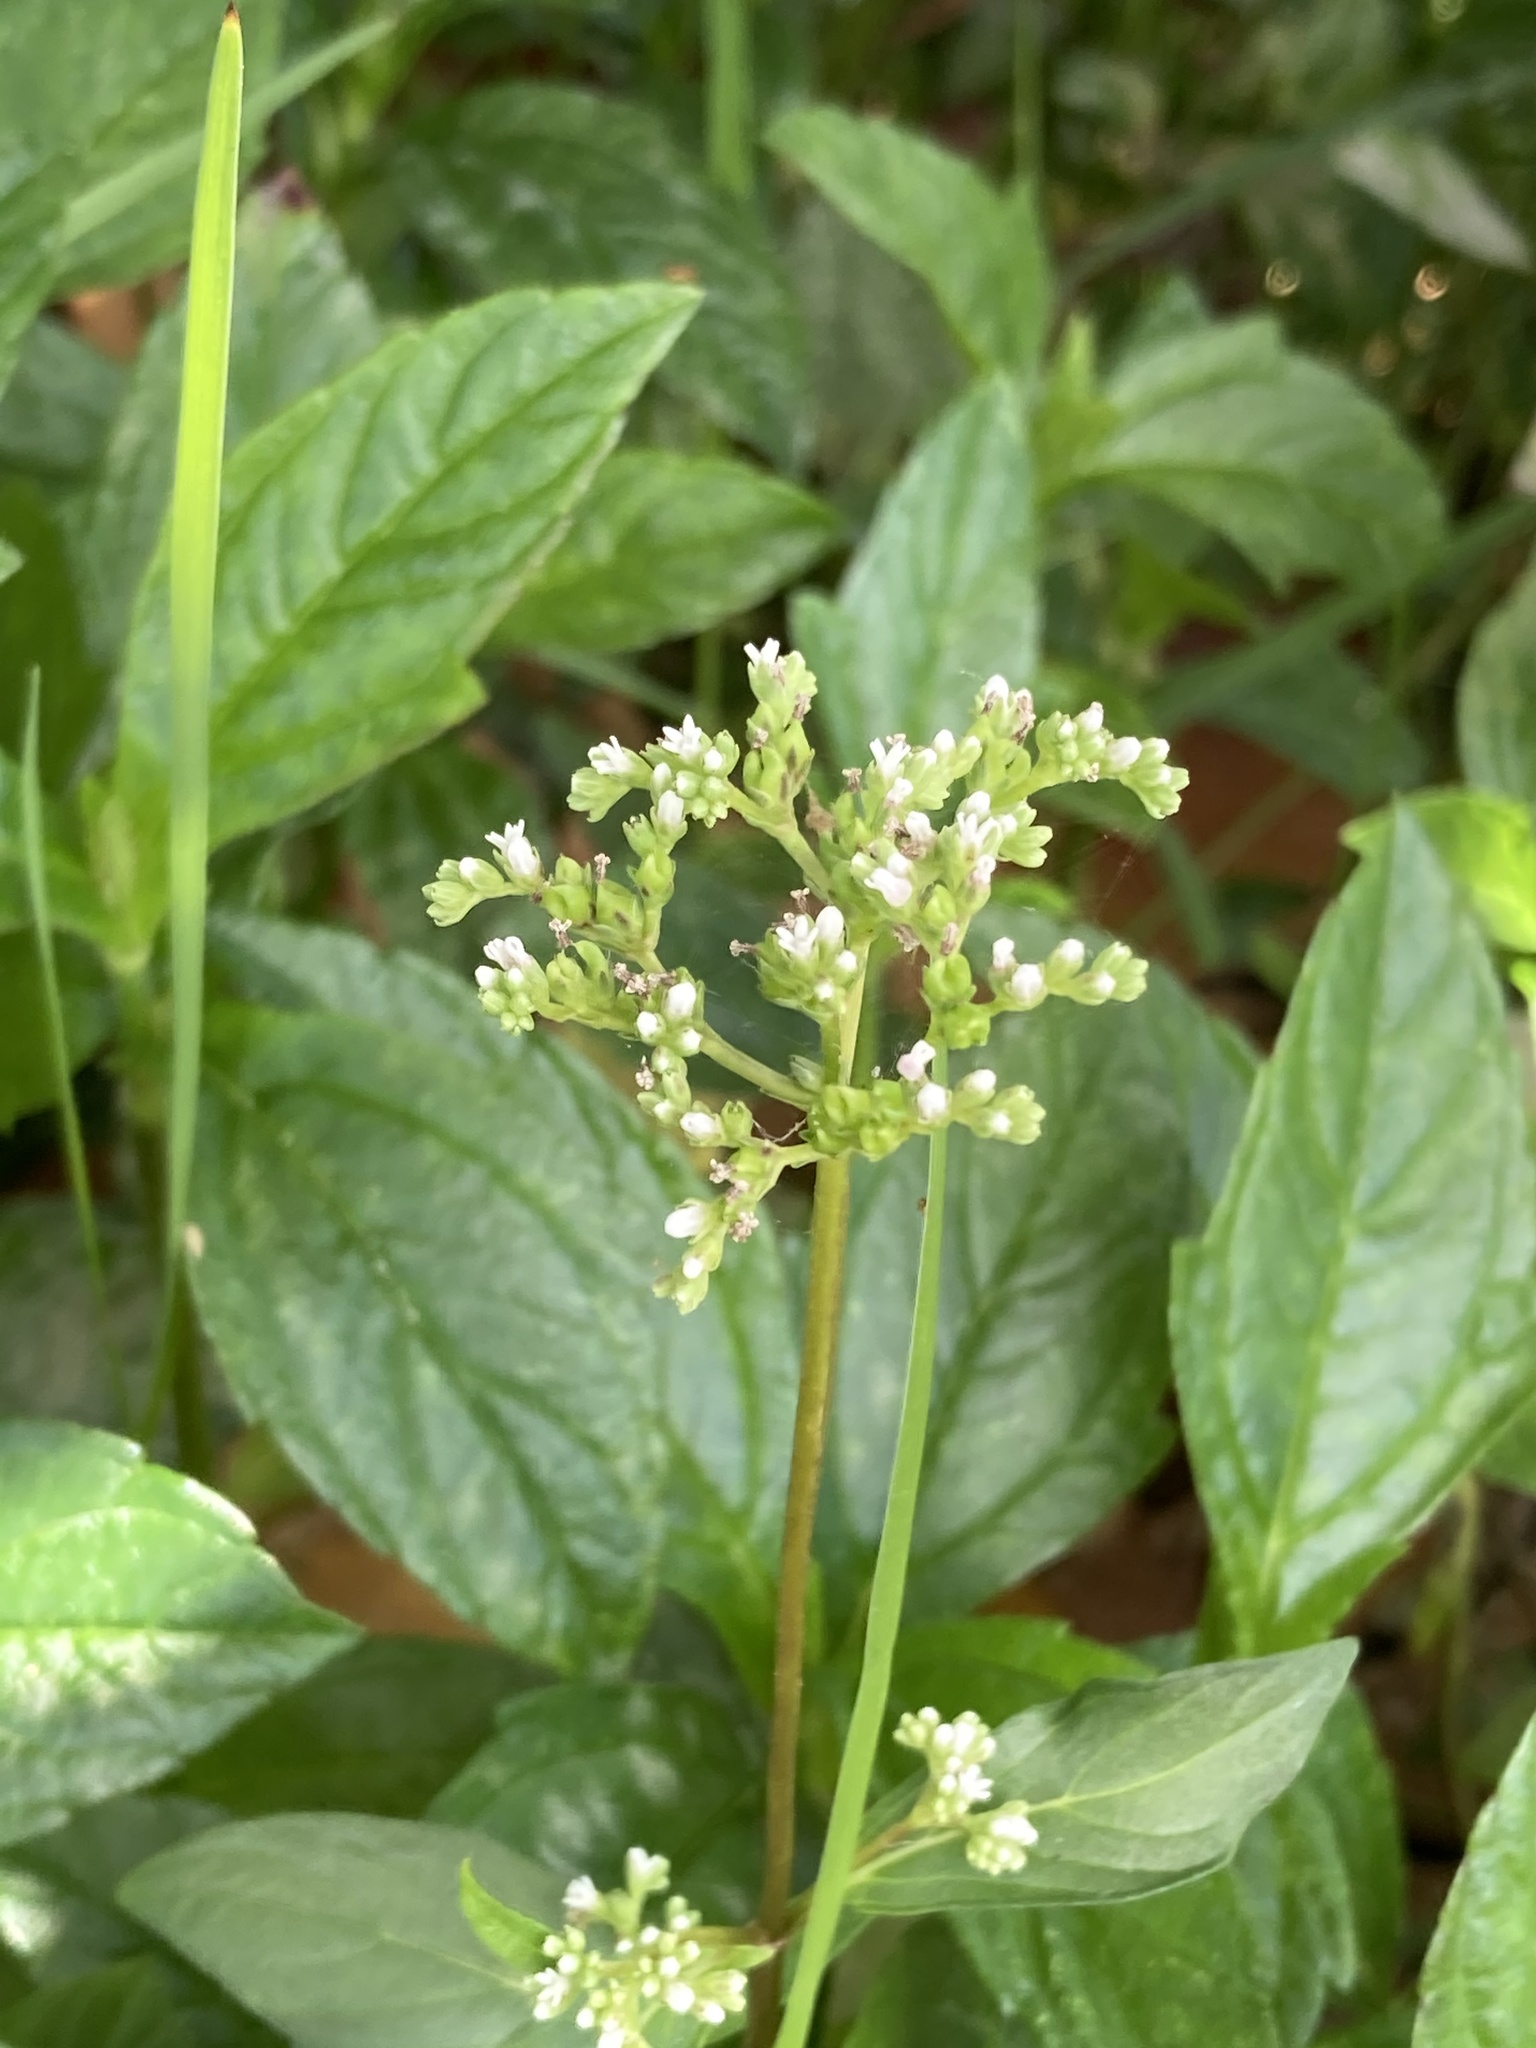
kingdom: Plantae
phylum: Tracheophyta
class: Magnoliopsida
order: Gentianales
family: Loganiaceae
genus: Mitreola
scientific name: Mitreola petiolata
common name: Lax hornpod
